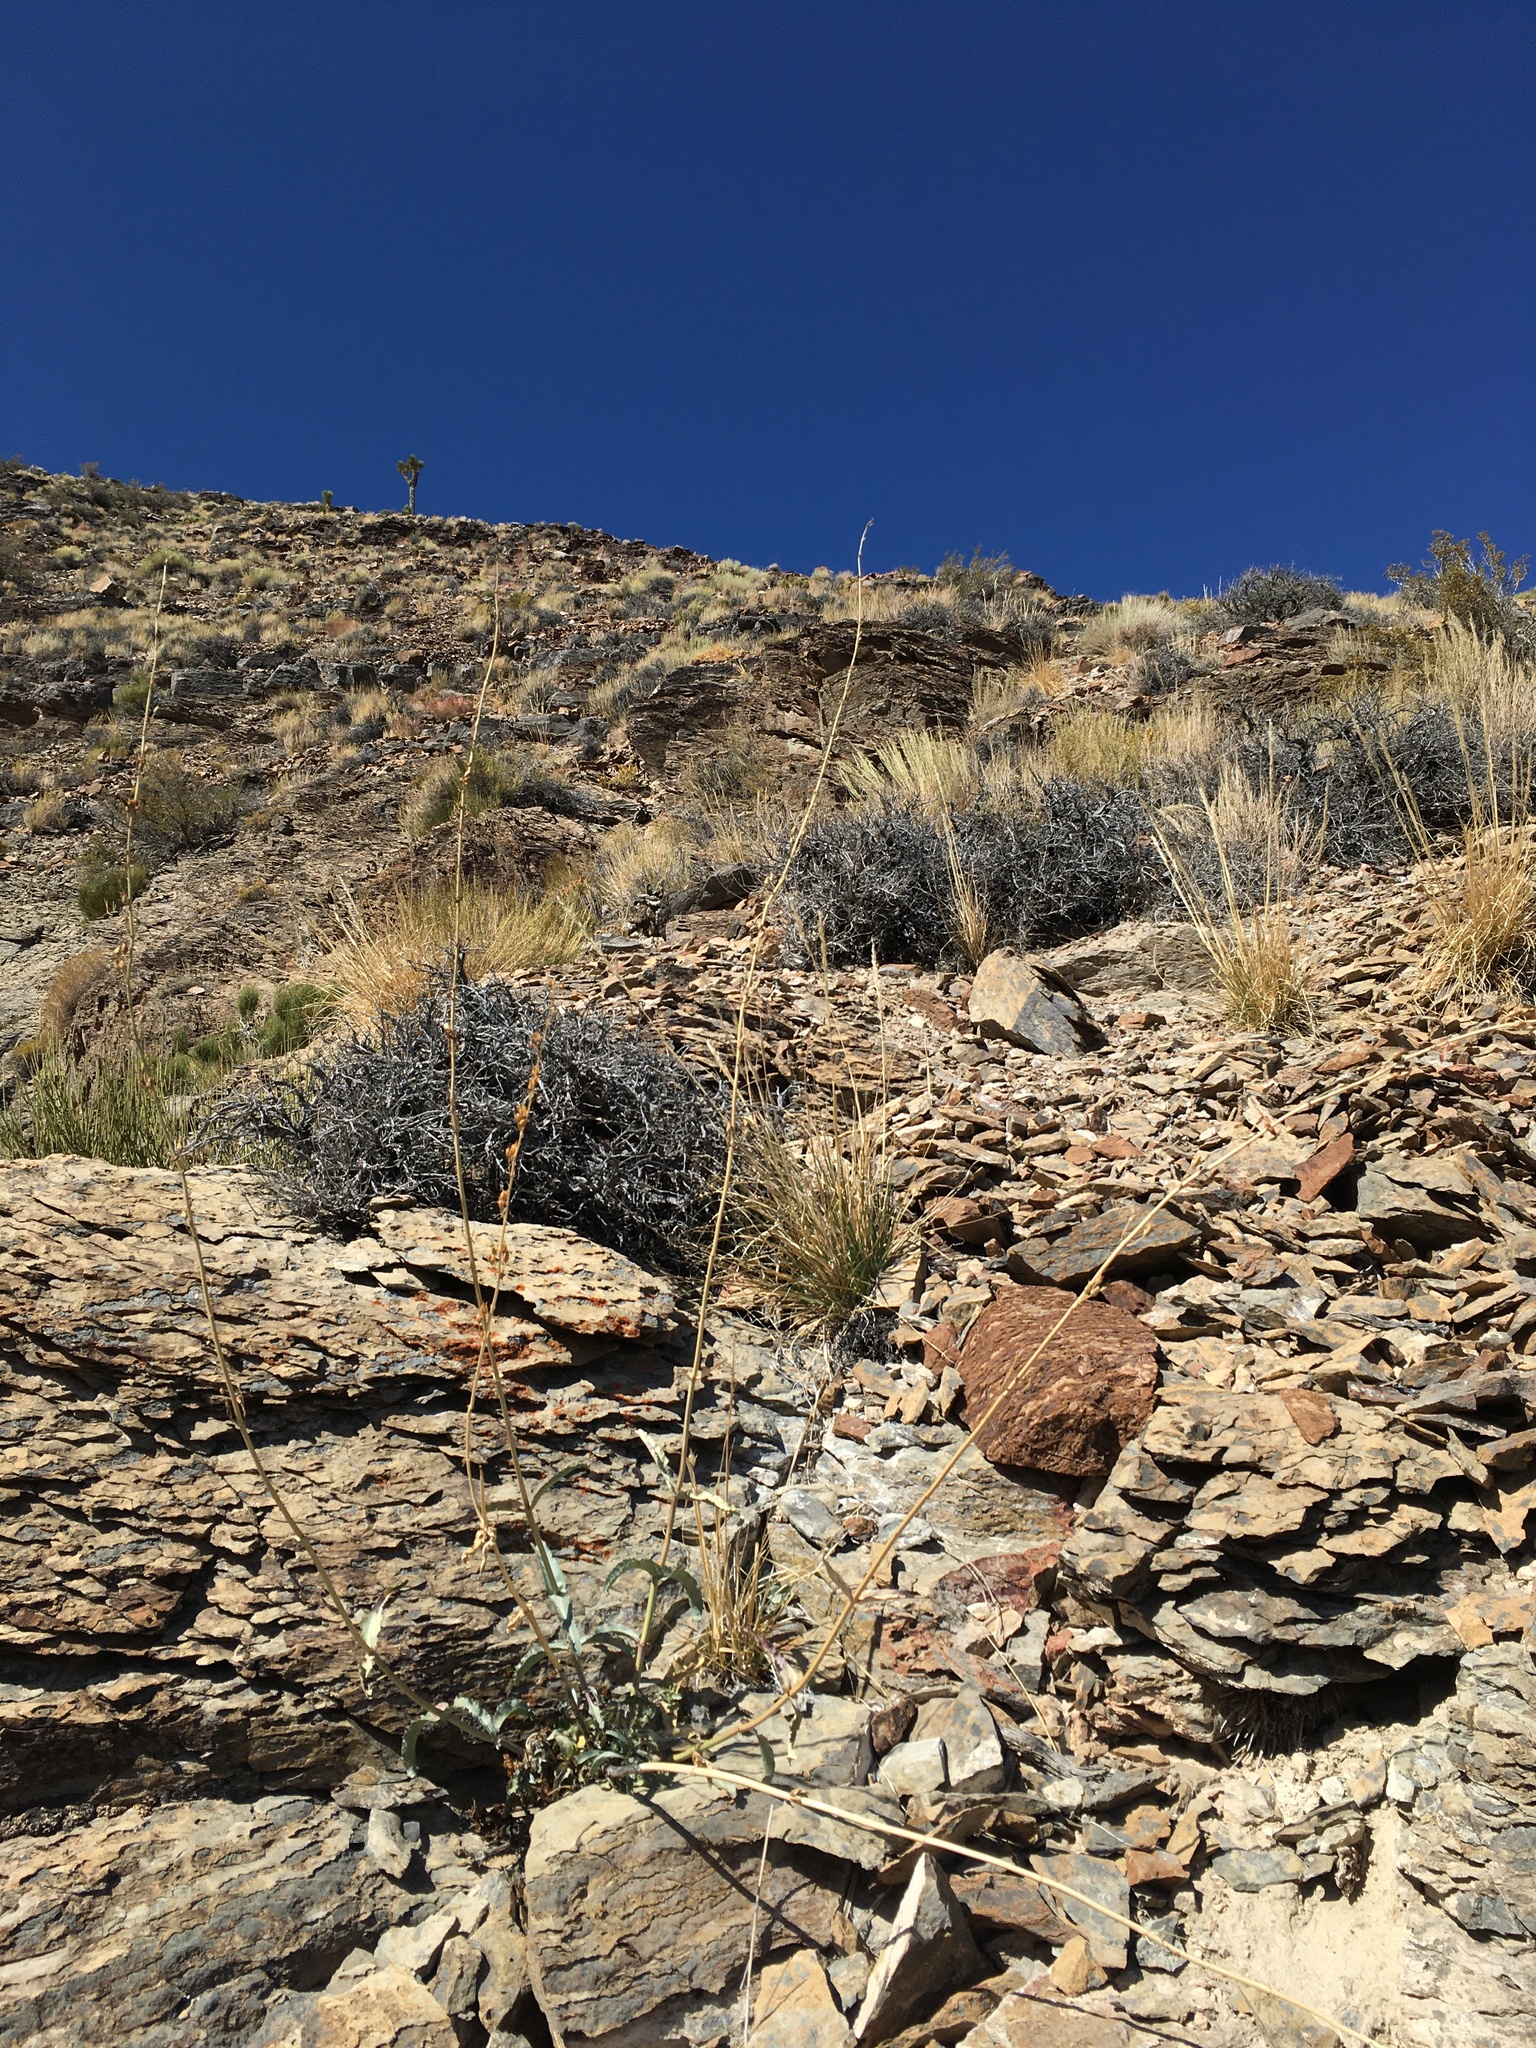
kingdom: Plantae
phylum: Tracheophyta
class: Magnoliopsida
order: Lamiales
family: Plantaginaceae
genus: Penstemon
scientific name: Penstemon floridus
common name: Panamint penstemon
